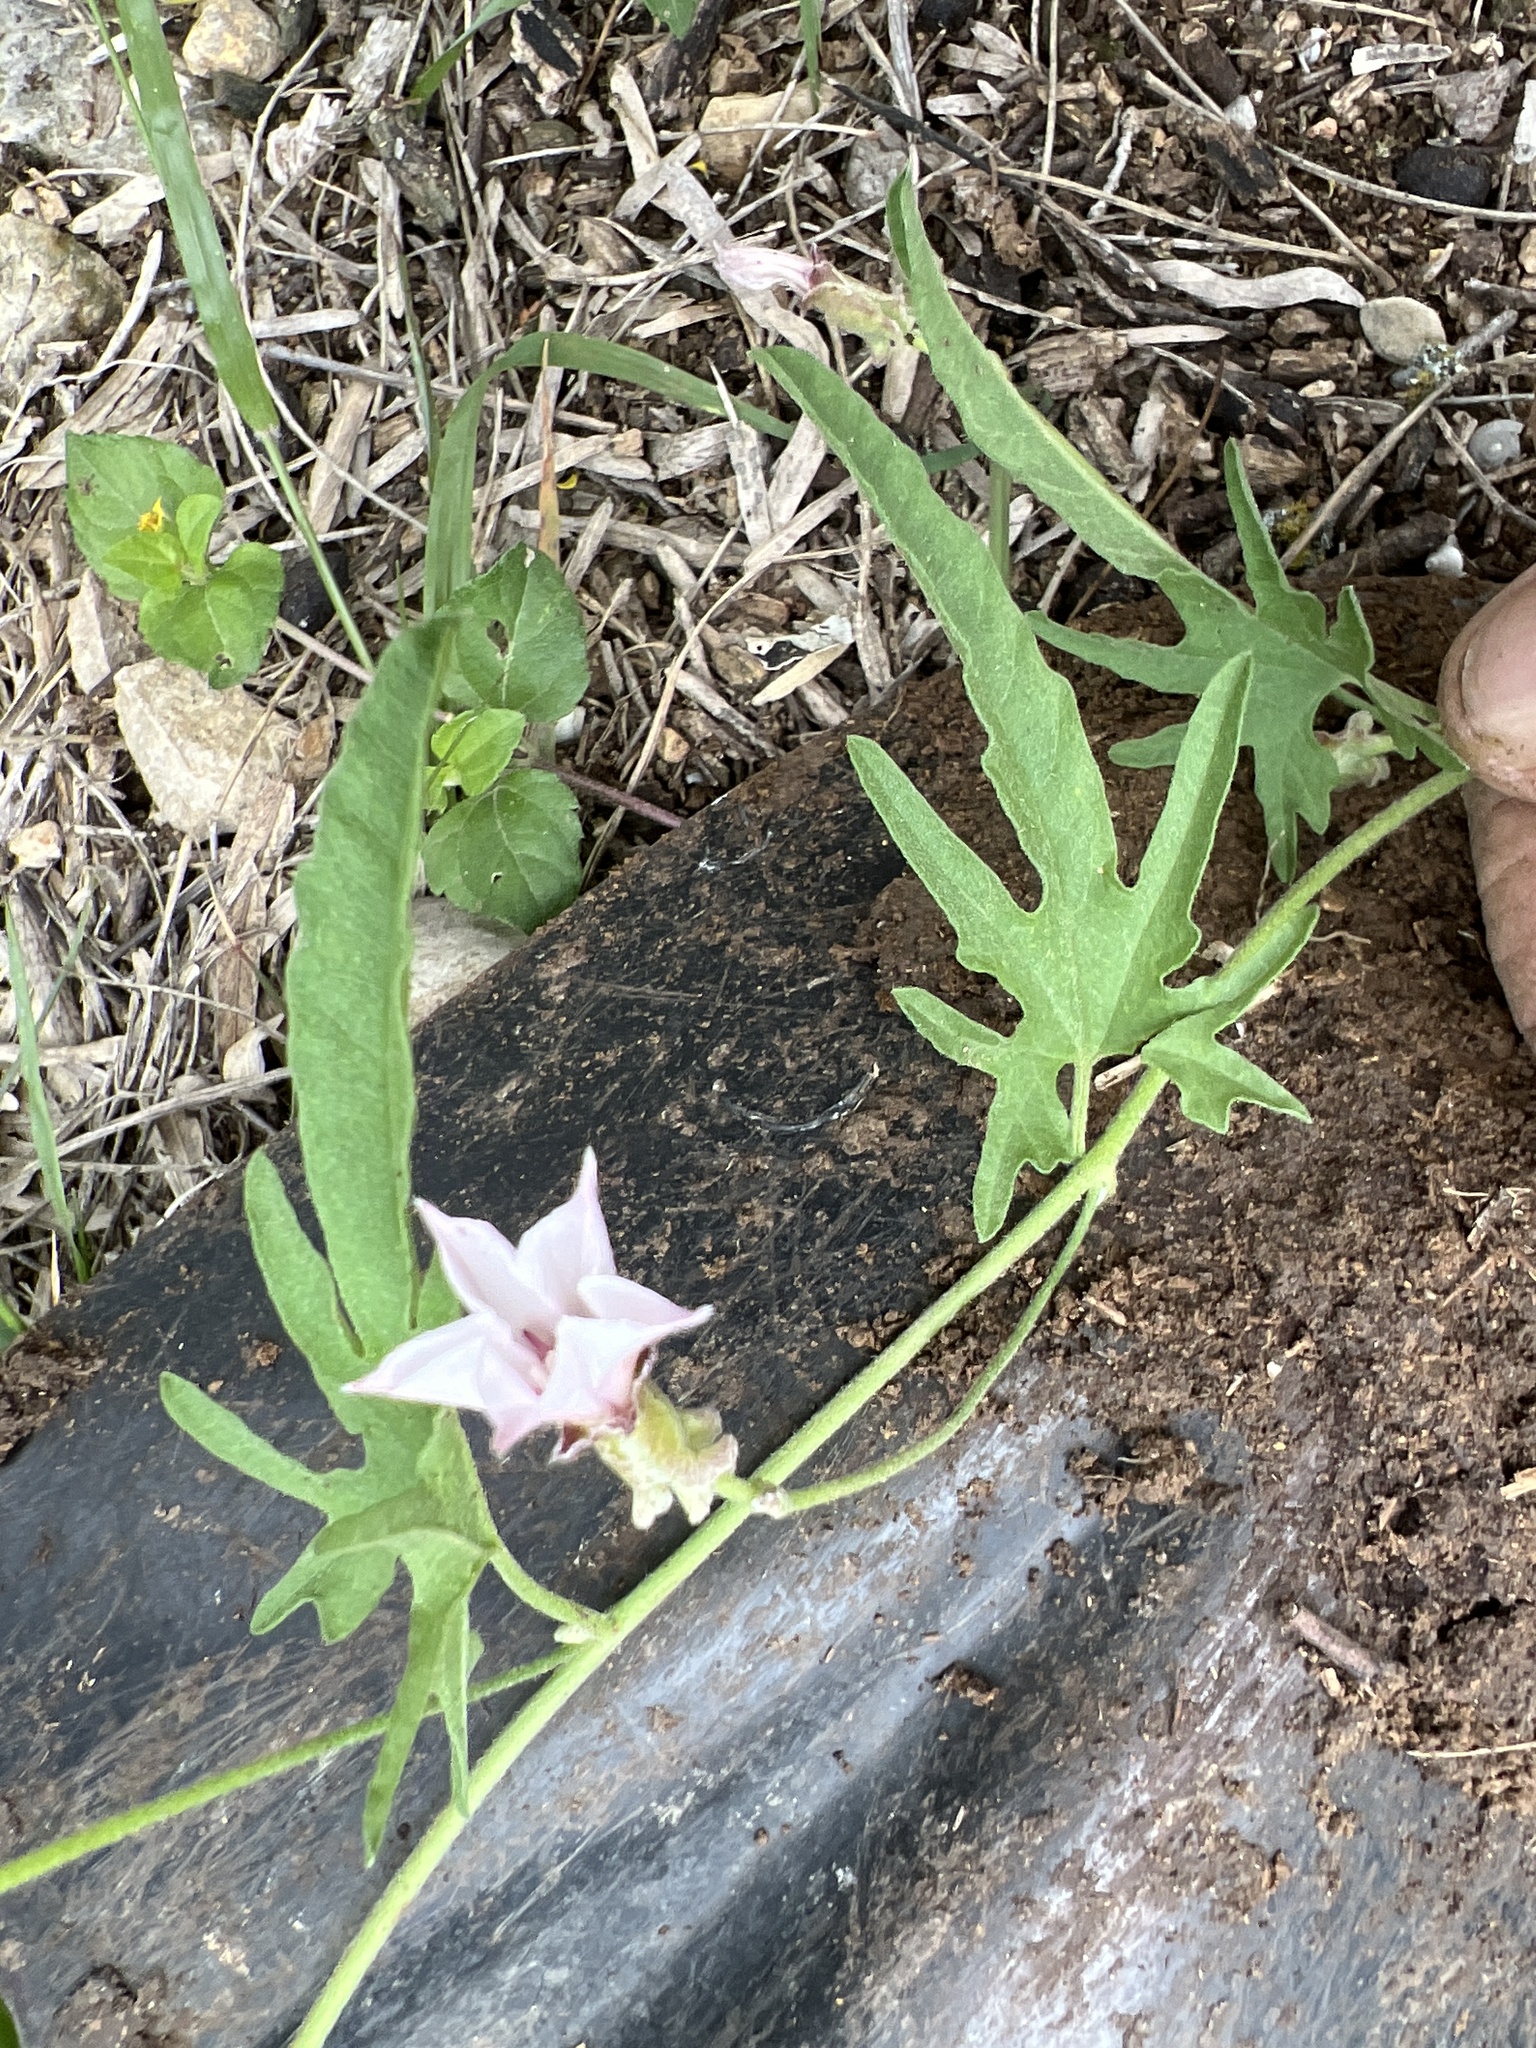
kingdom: Plantae
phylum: Tracheophyta
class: Magnoliopsida
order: Solanales
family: Convolvulaceae
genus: Convolvulus
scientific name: Convolvulus equitans
